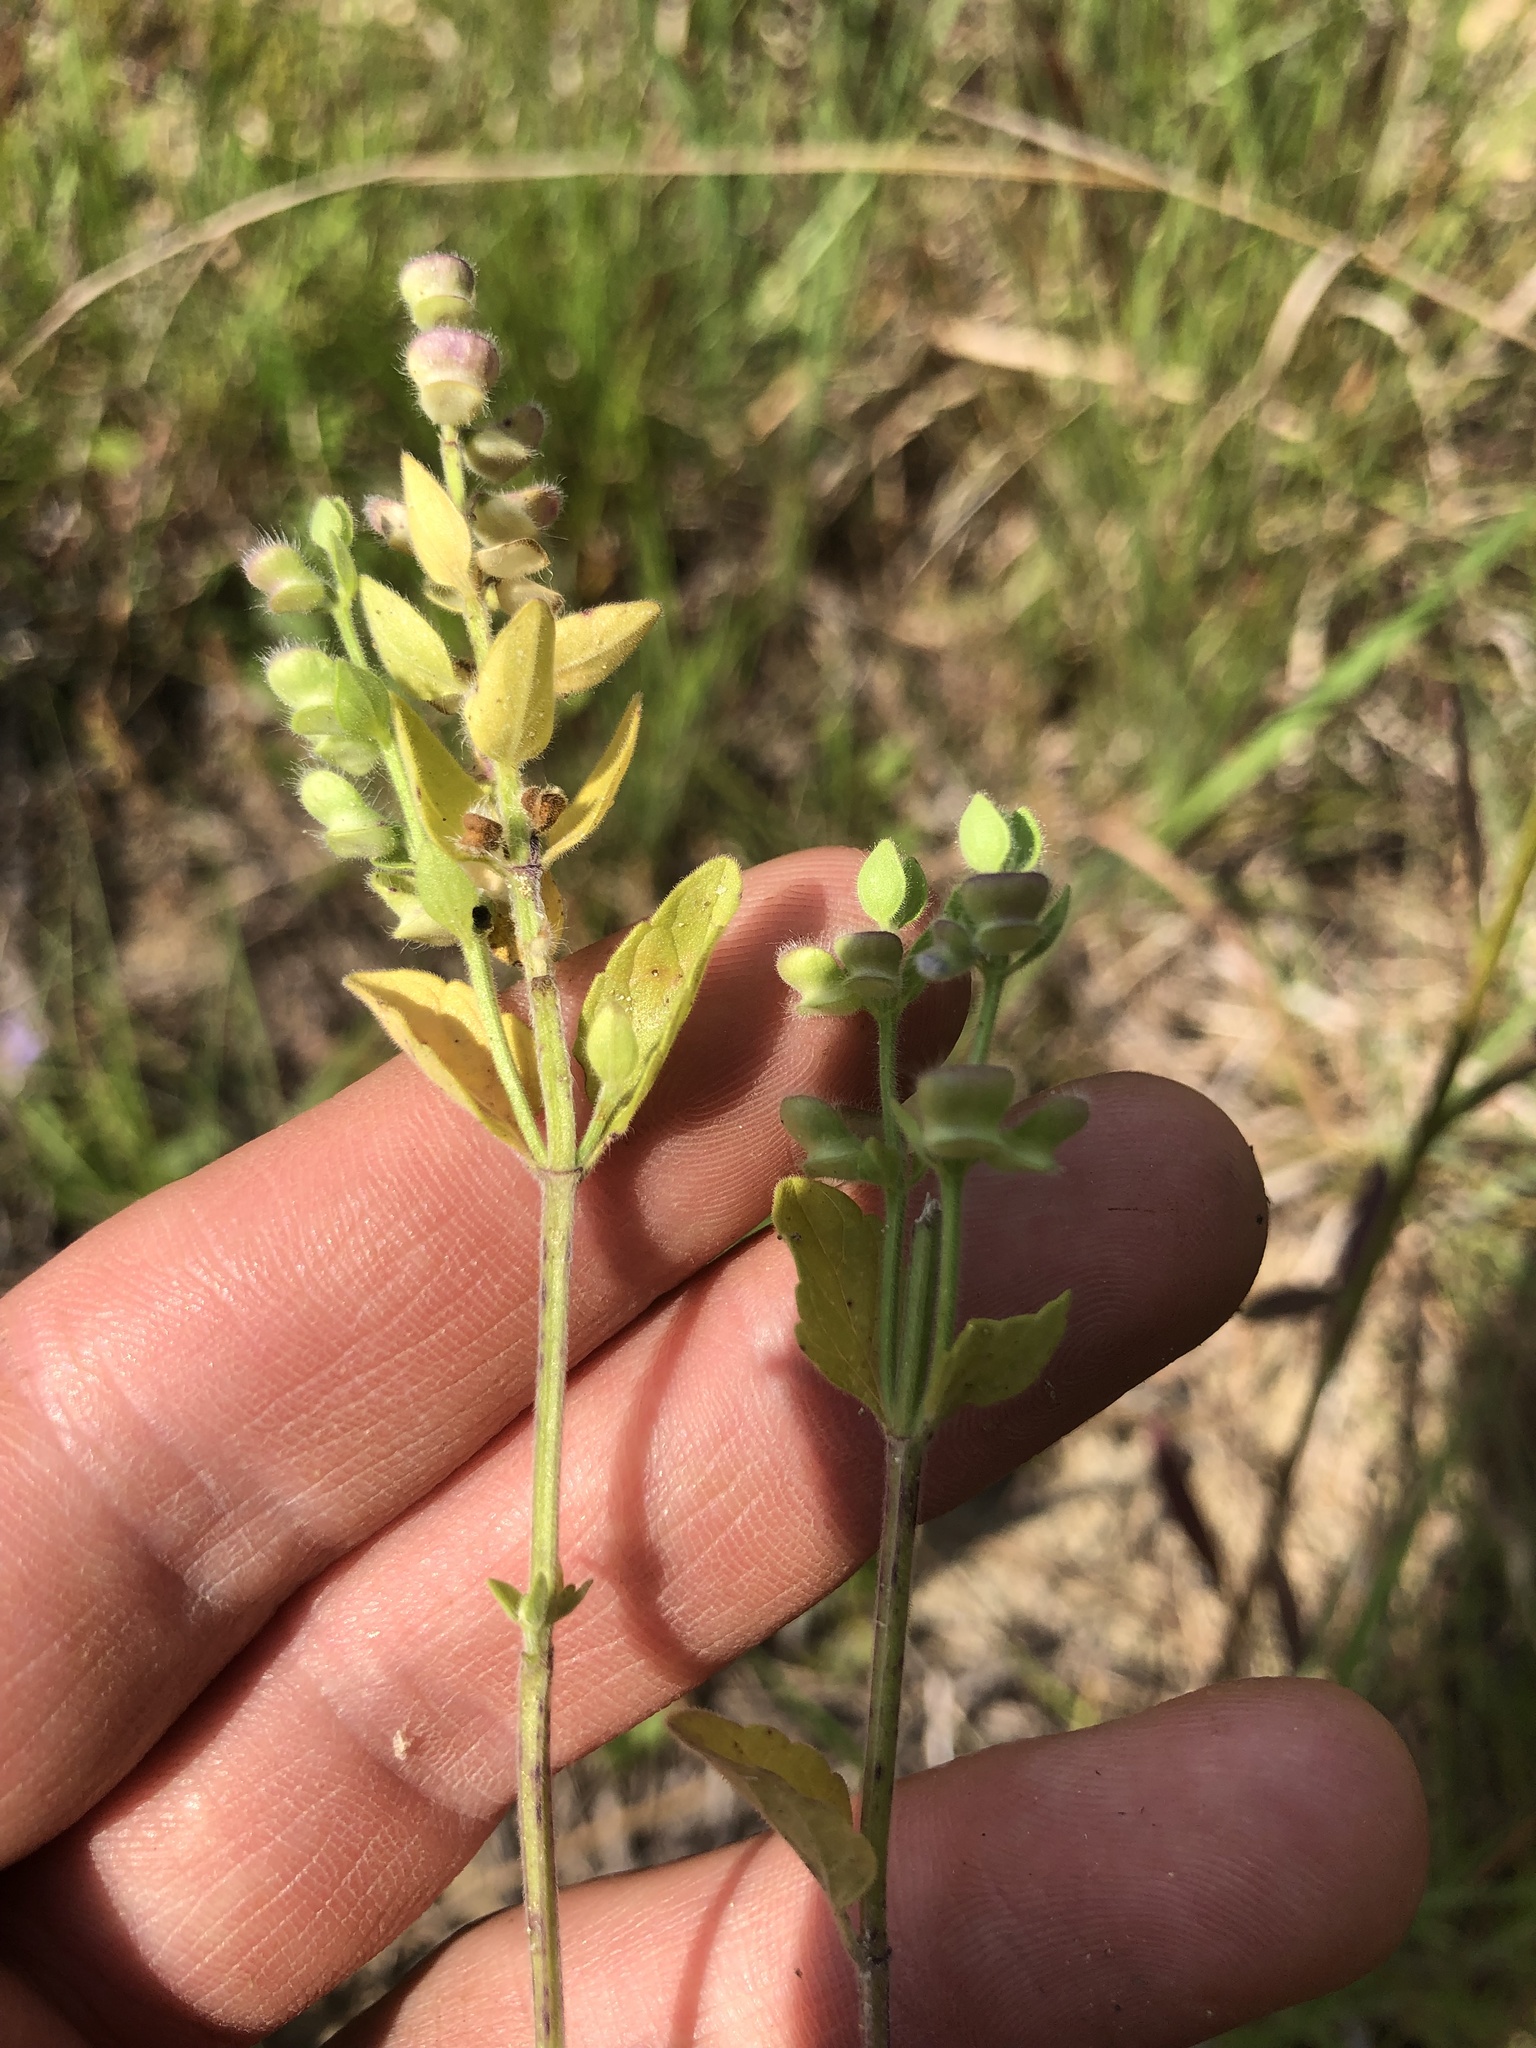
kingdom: Plantae
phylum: Tracheophyta
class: Magnoliopsida
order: Lamiales
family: Lamiaceae
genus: Scutellaria
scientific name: Scutellaria parvula
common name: Little scullcap
